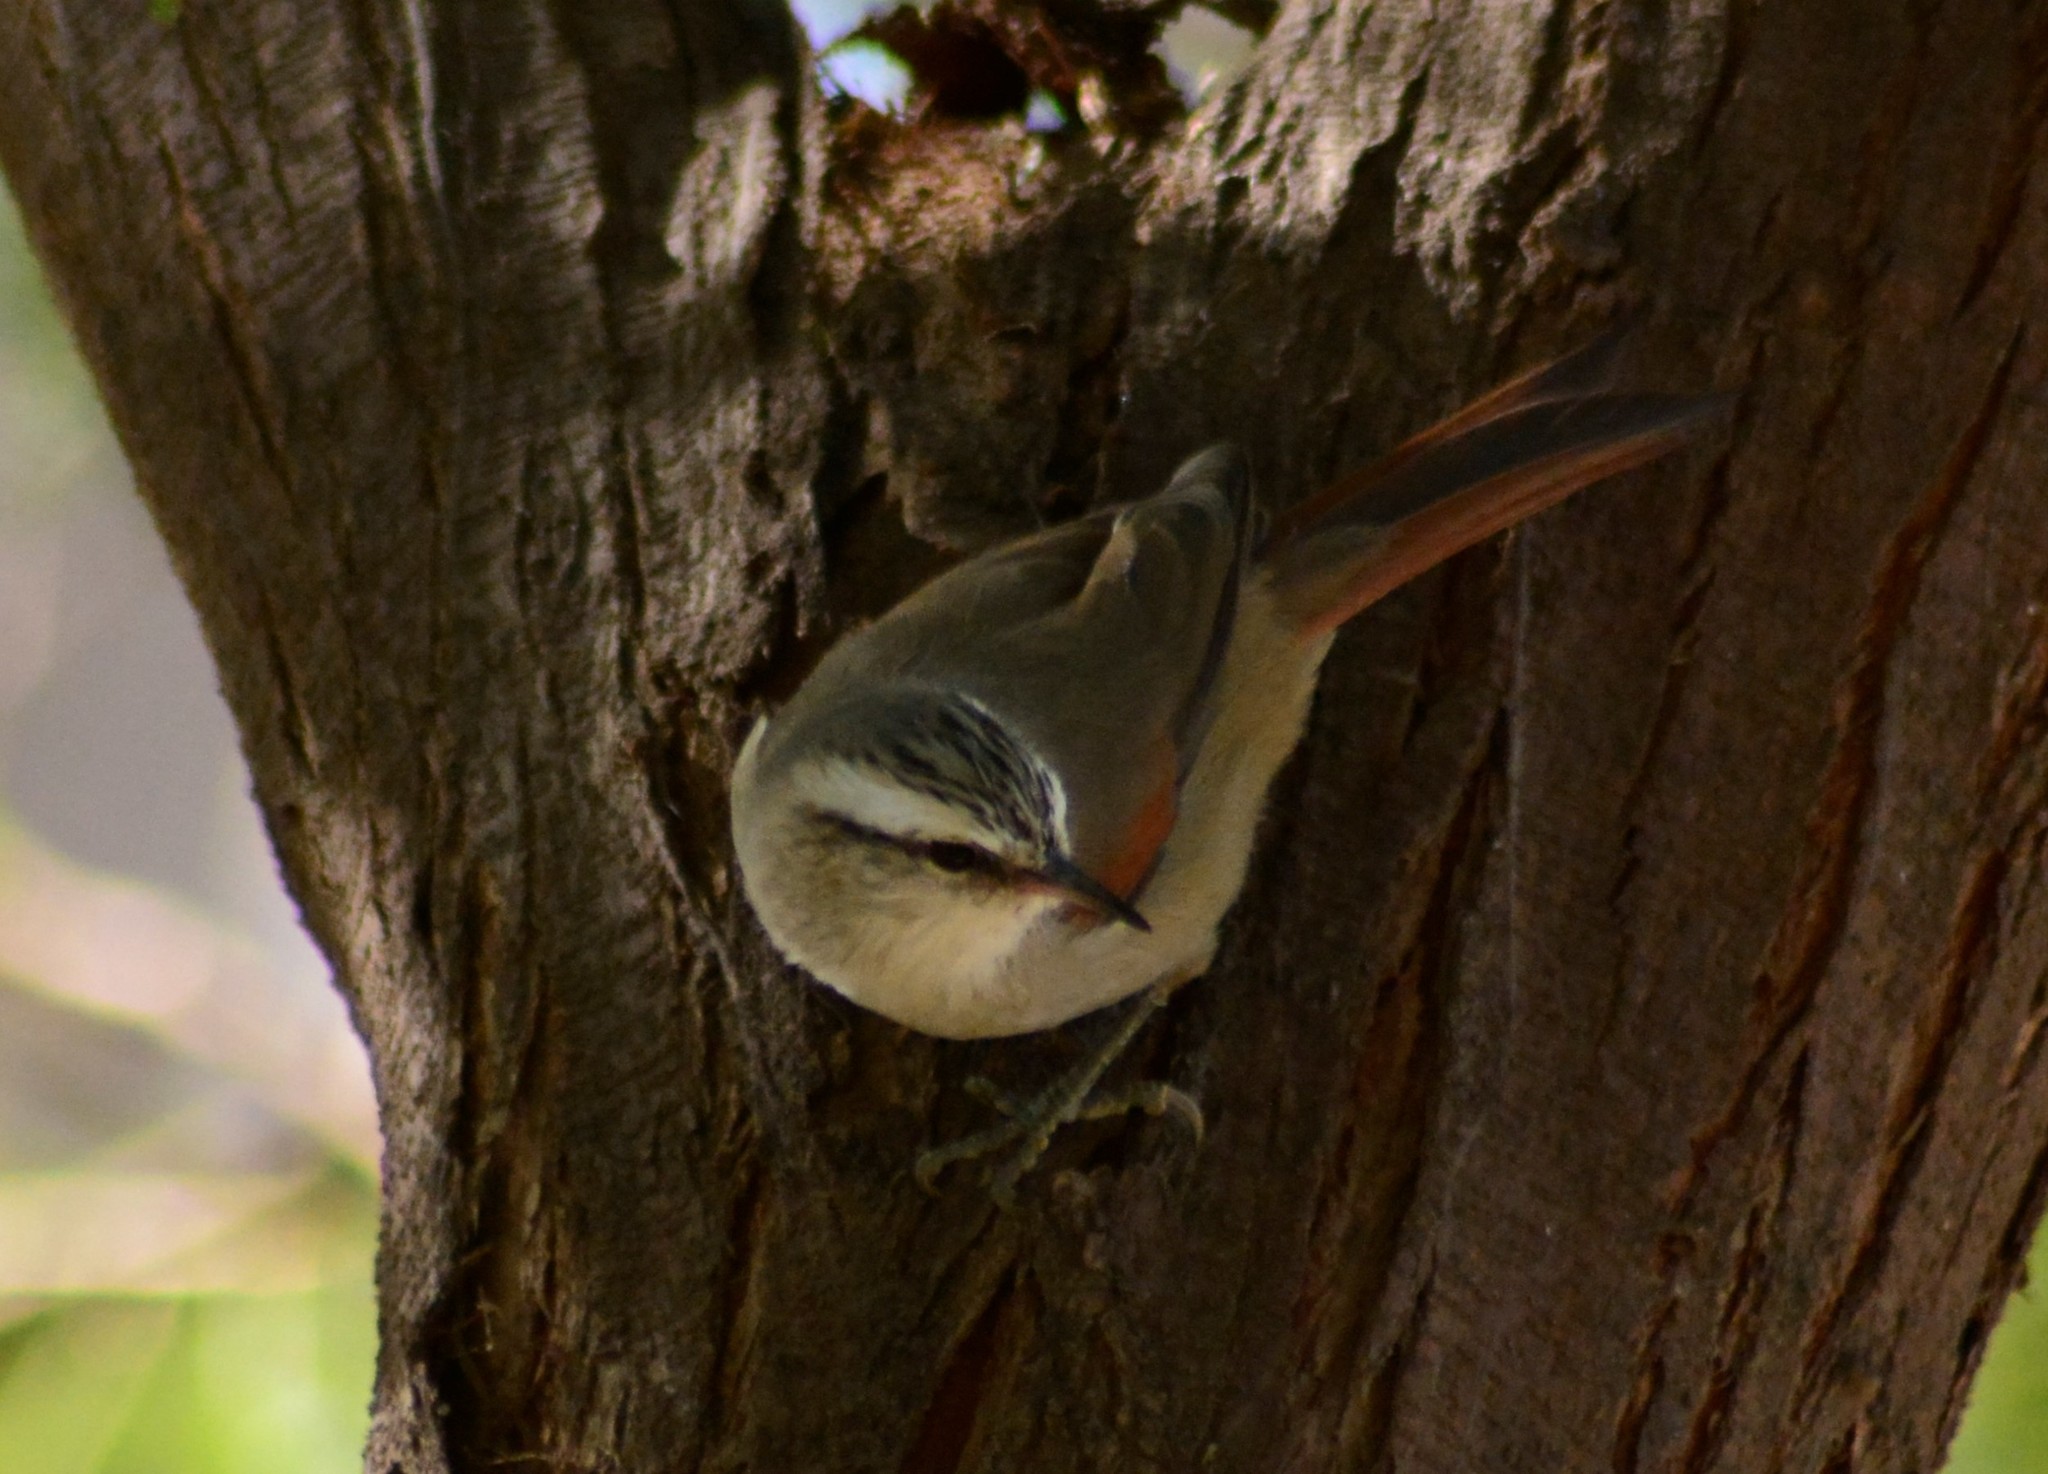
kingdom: Animalia
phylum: Chordata
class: Aves
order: Passeriformes
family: Furnariidae
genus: Cranioleuca
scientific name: Cranioleuca pyrrhophia
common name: Stripe-crowned spinetail
